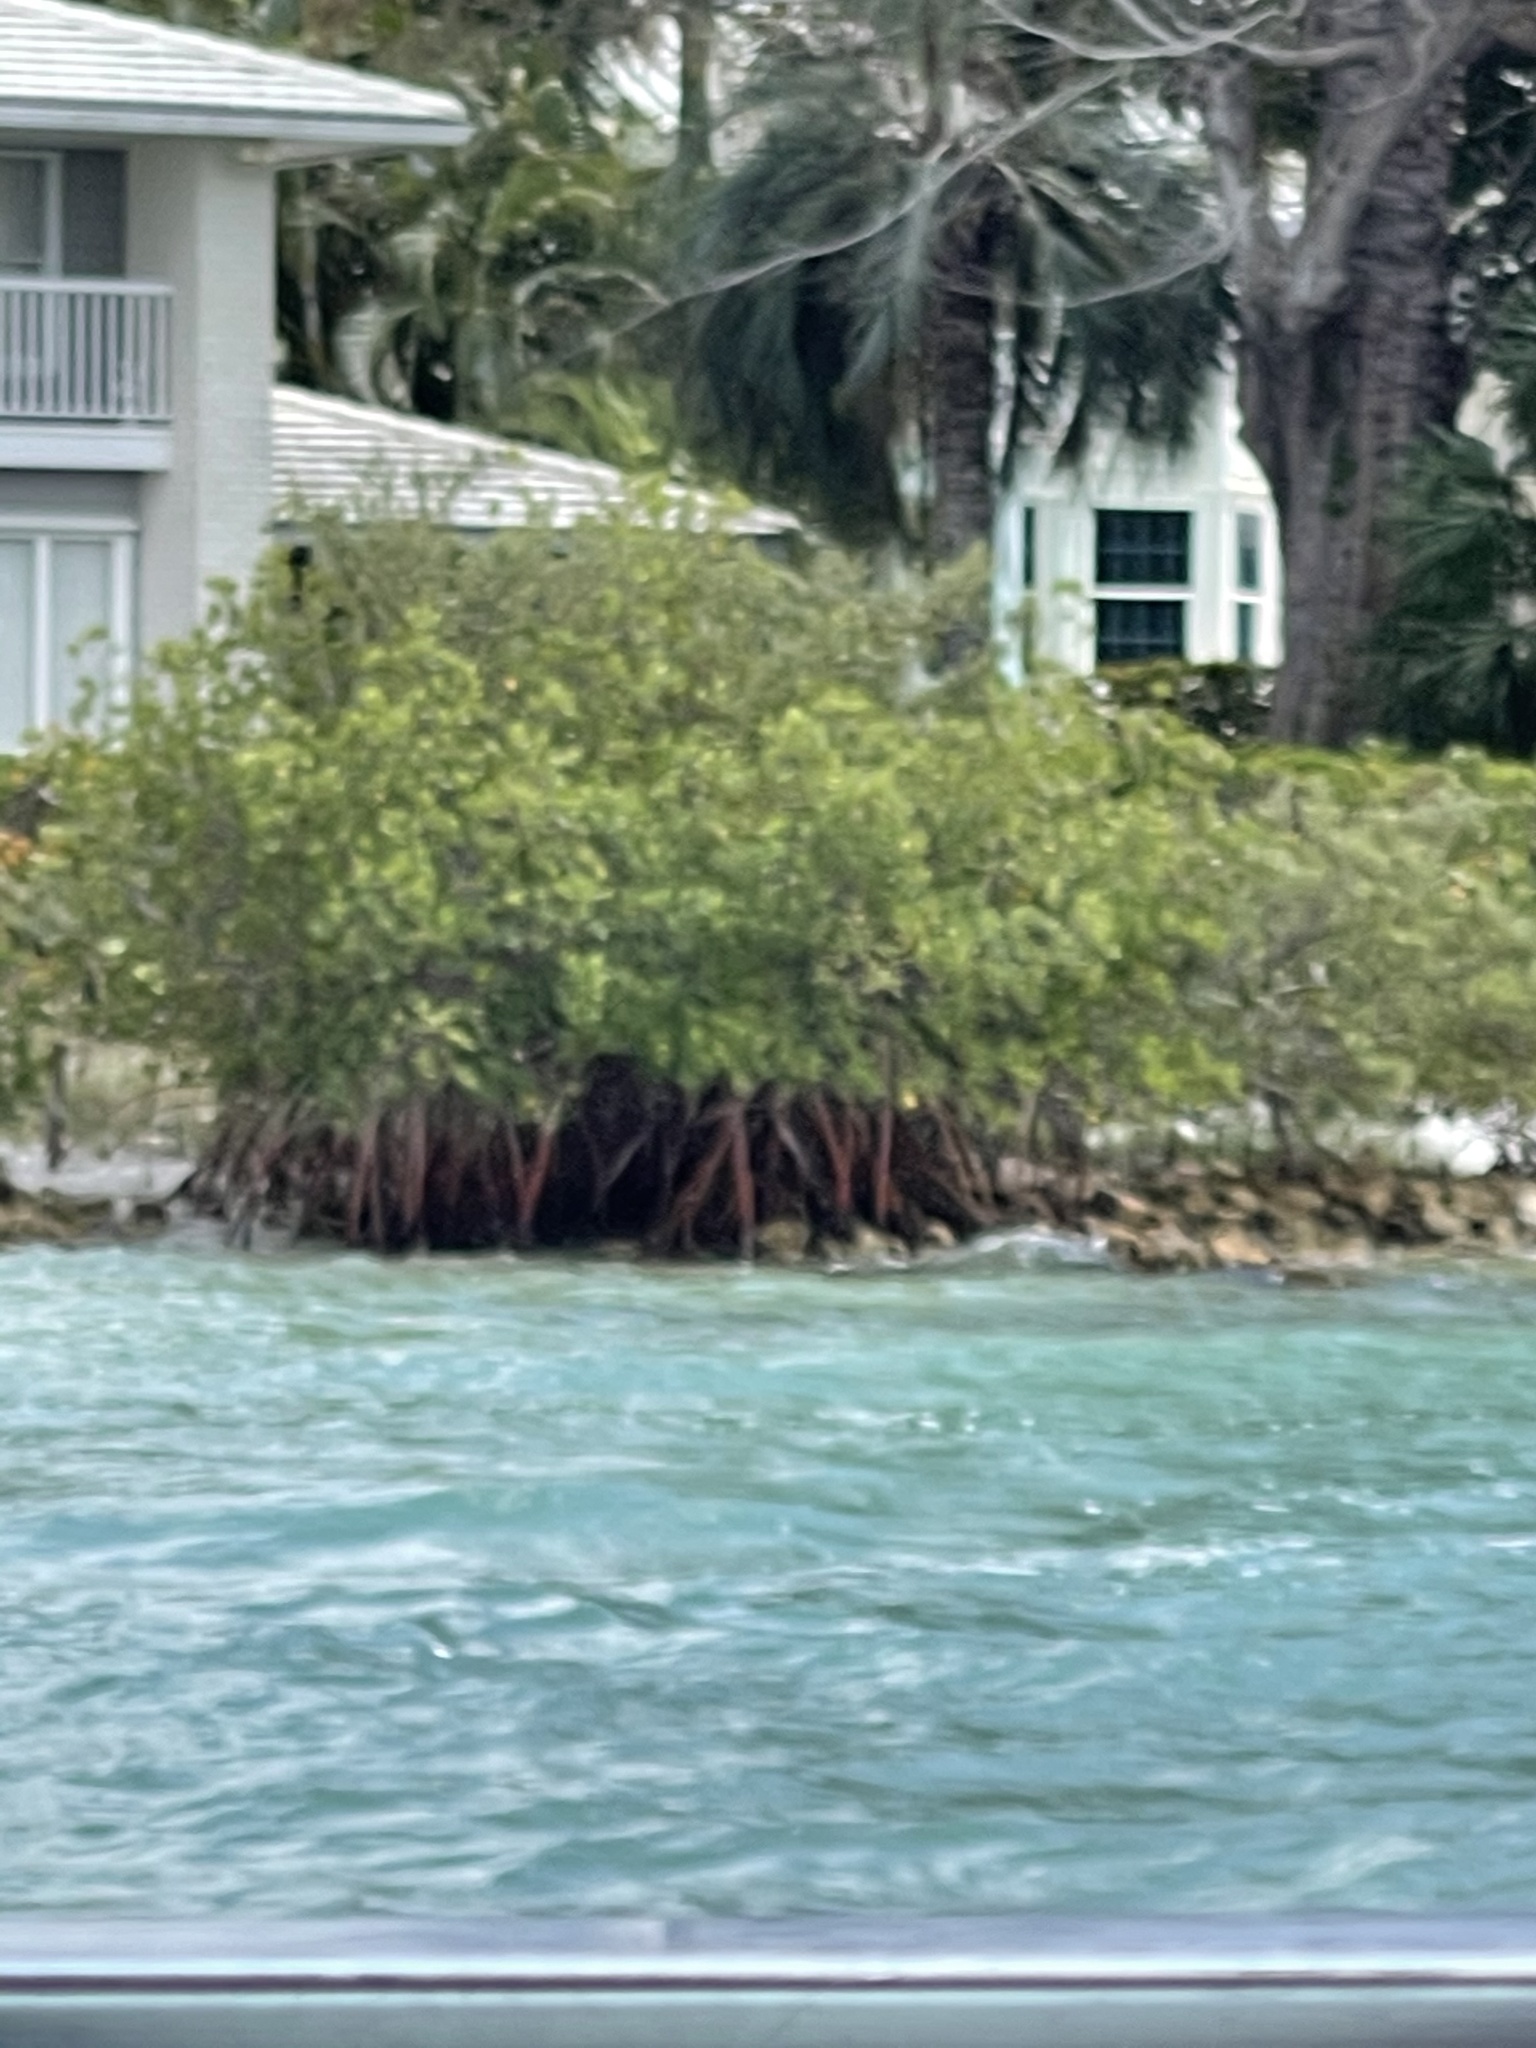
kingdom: Plantae
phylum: Tracheophyta
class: Magnoliopsida
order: Malpighiales
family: Rhizophoraceae
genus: Rhizophora
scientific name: Rhizophora mangle
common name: Red mangrove
